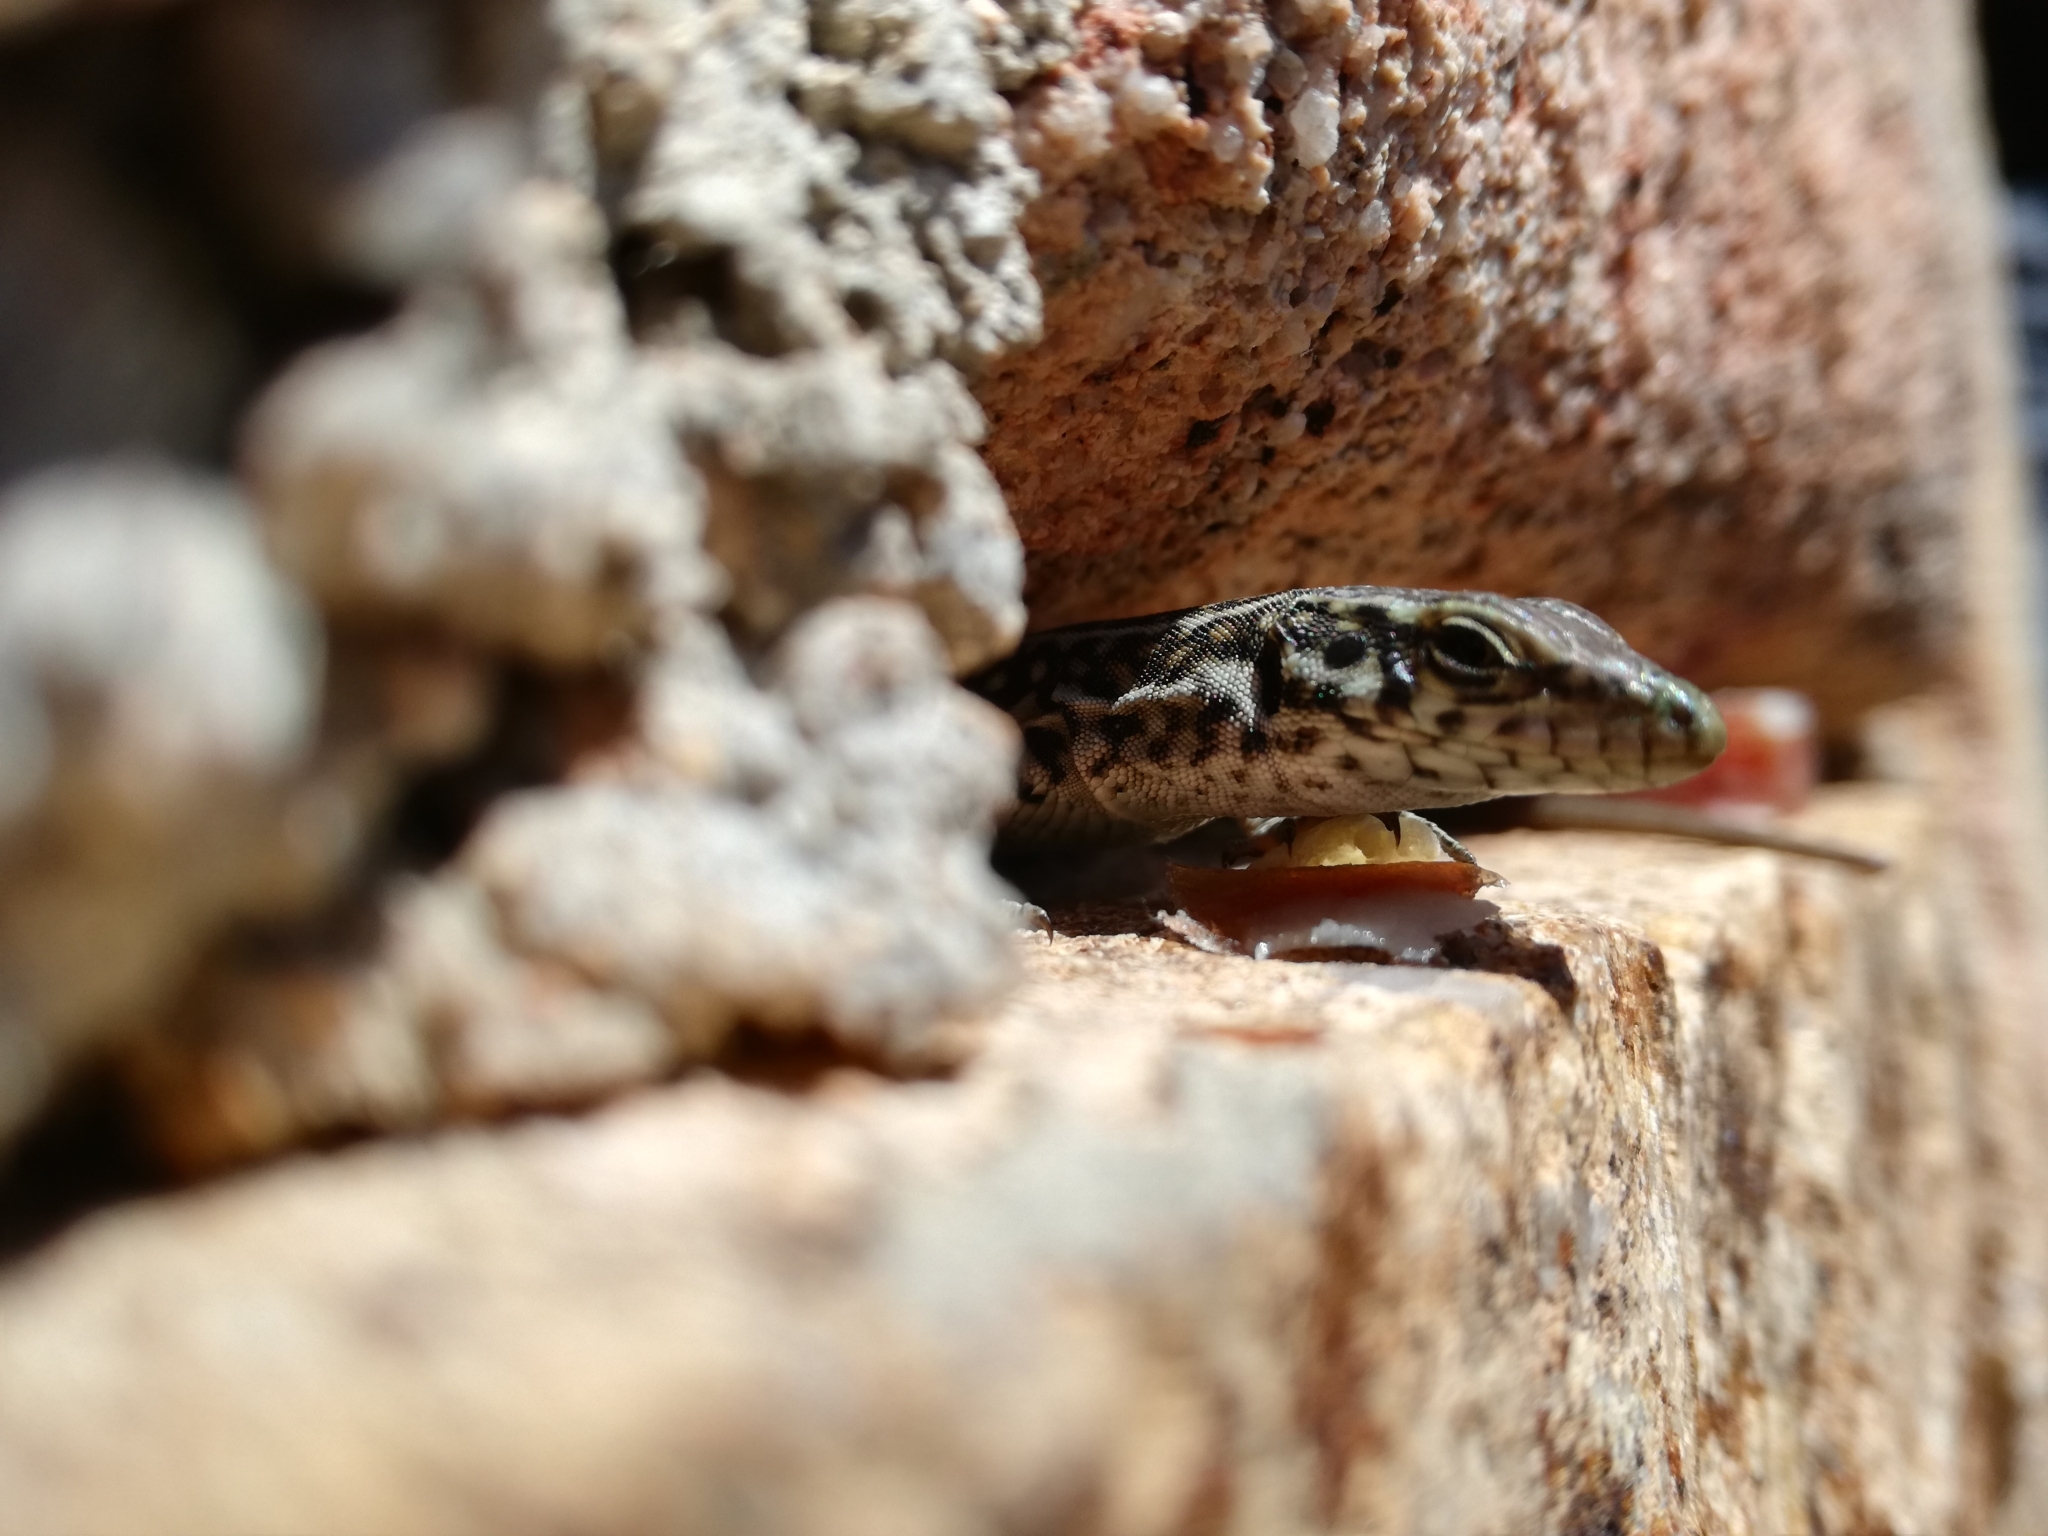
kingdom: Animalia
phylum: Chordata
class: Squamata
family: Lacertidae
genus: Podarcis
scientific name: Podarcis tiliguerta
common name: Tyrrhenian wall lizard
